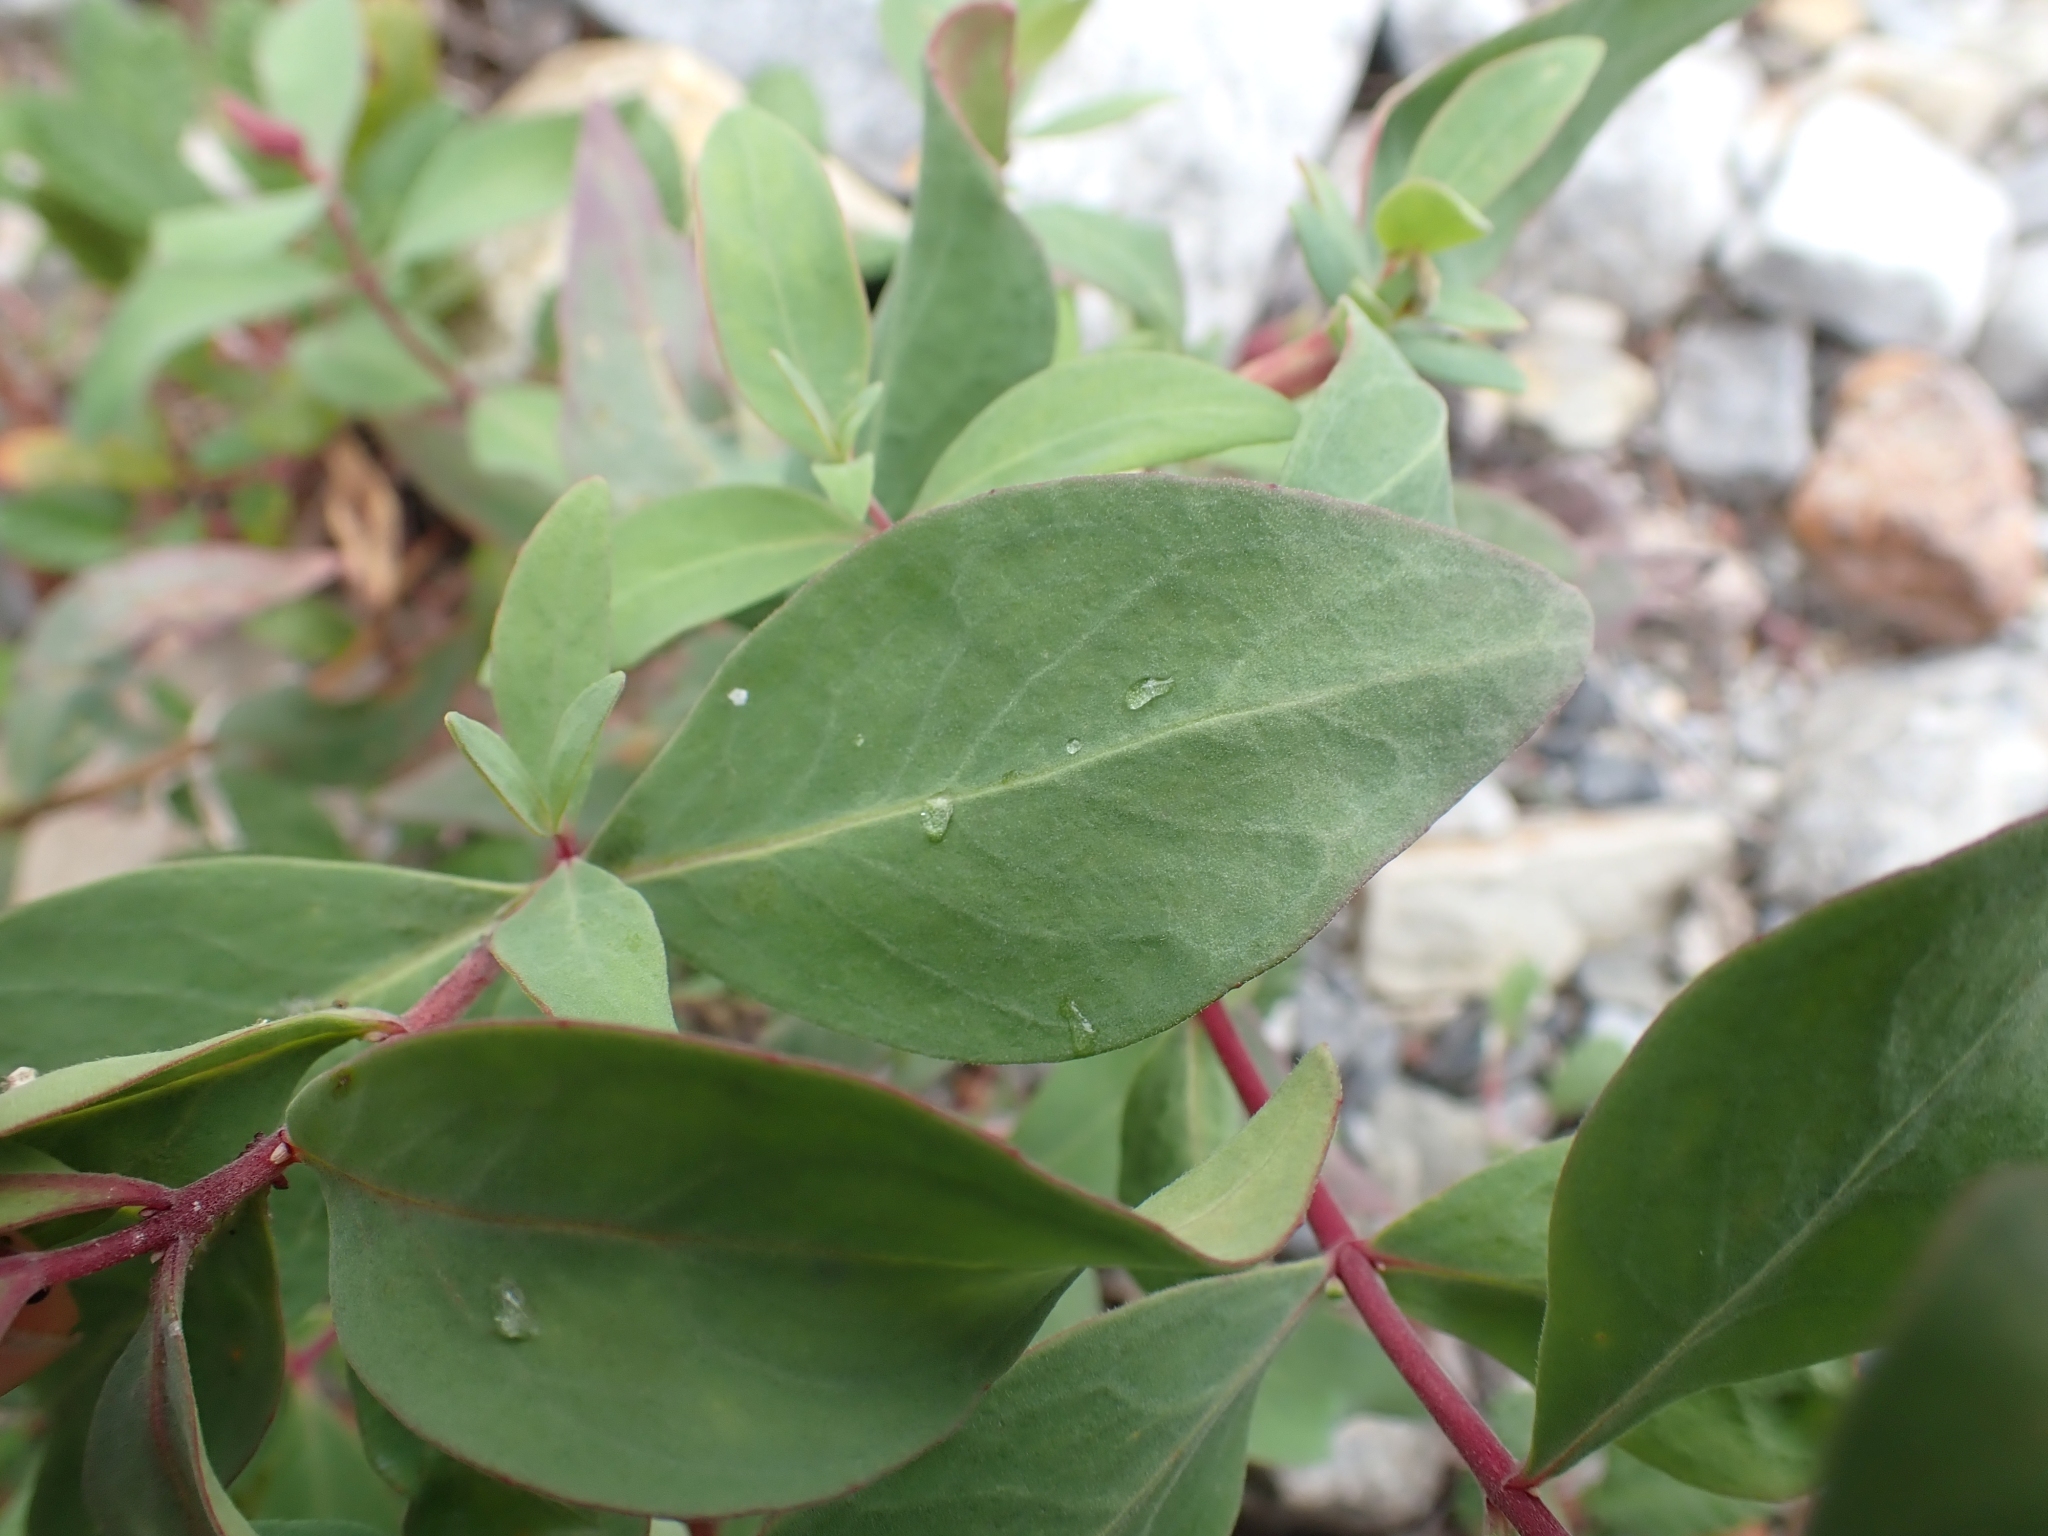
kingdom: Plantae
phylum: Tracheophyta
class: Magnoliopsida
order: Myrtales
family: Onagraceae
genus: Chamaenerion
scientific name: Chamaenerion latifolium
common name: Dwarf fireweed
